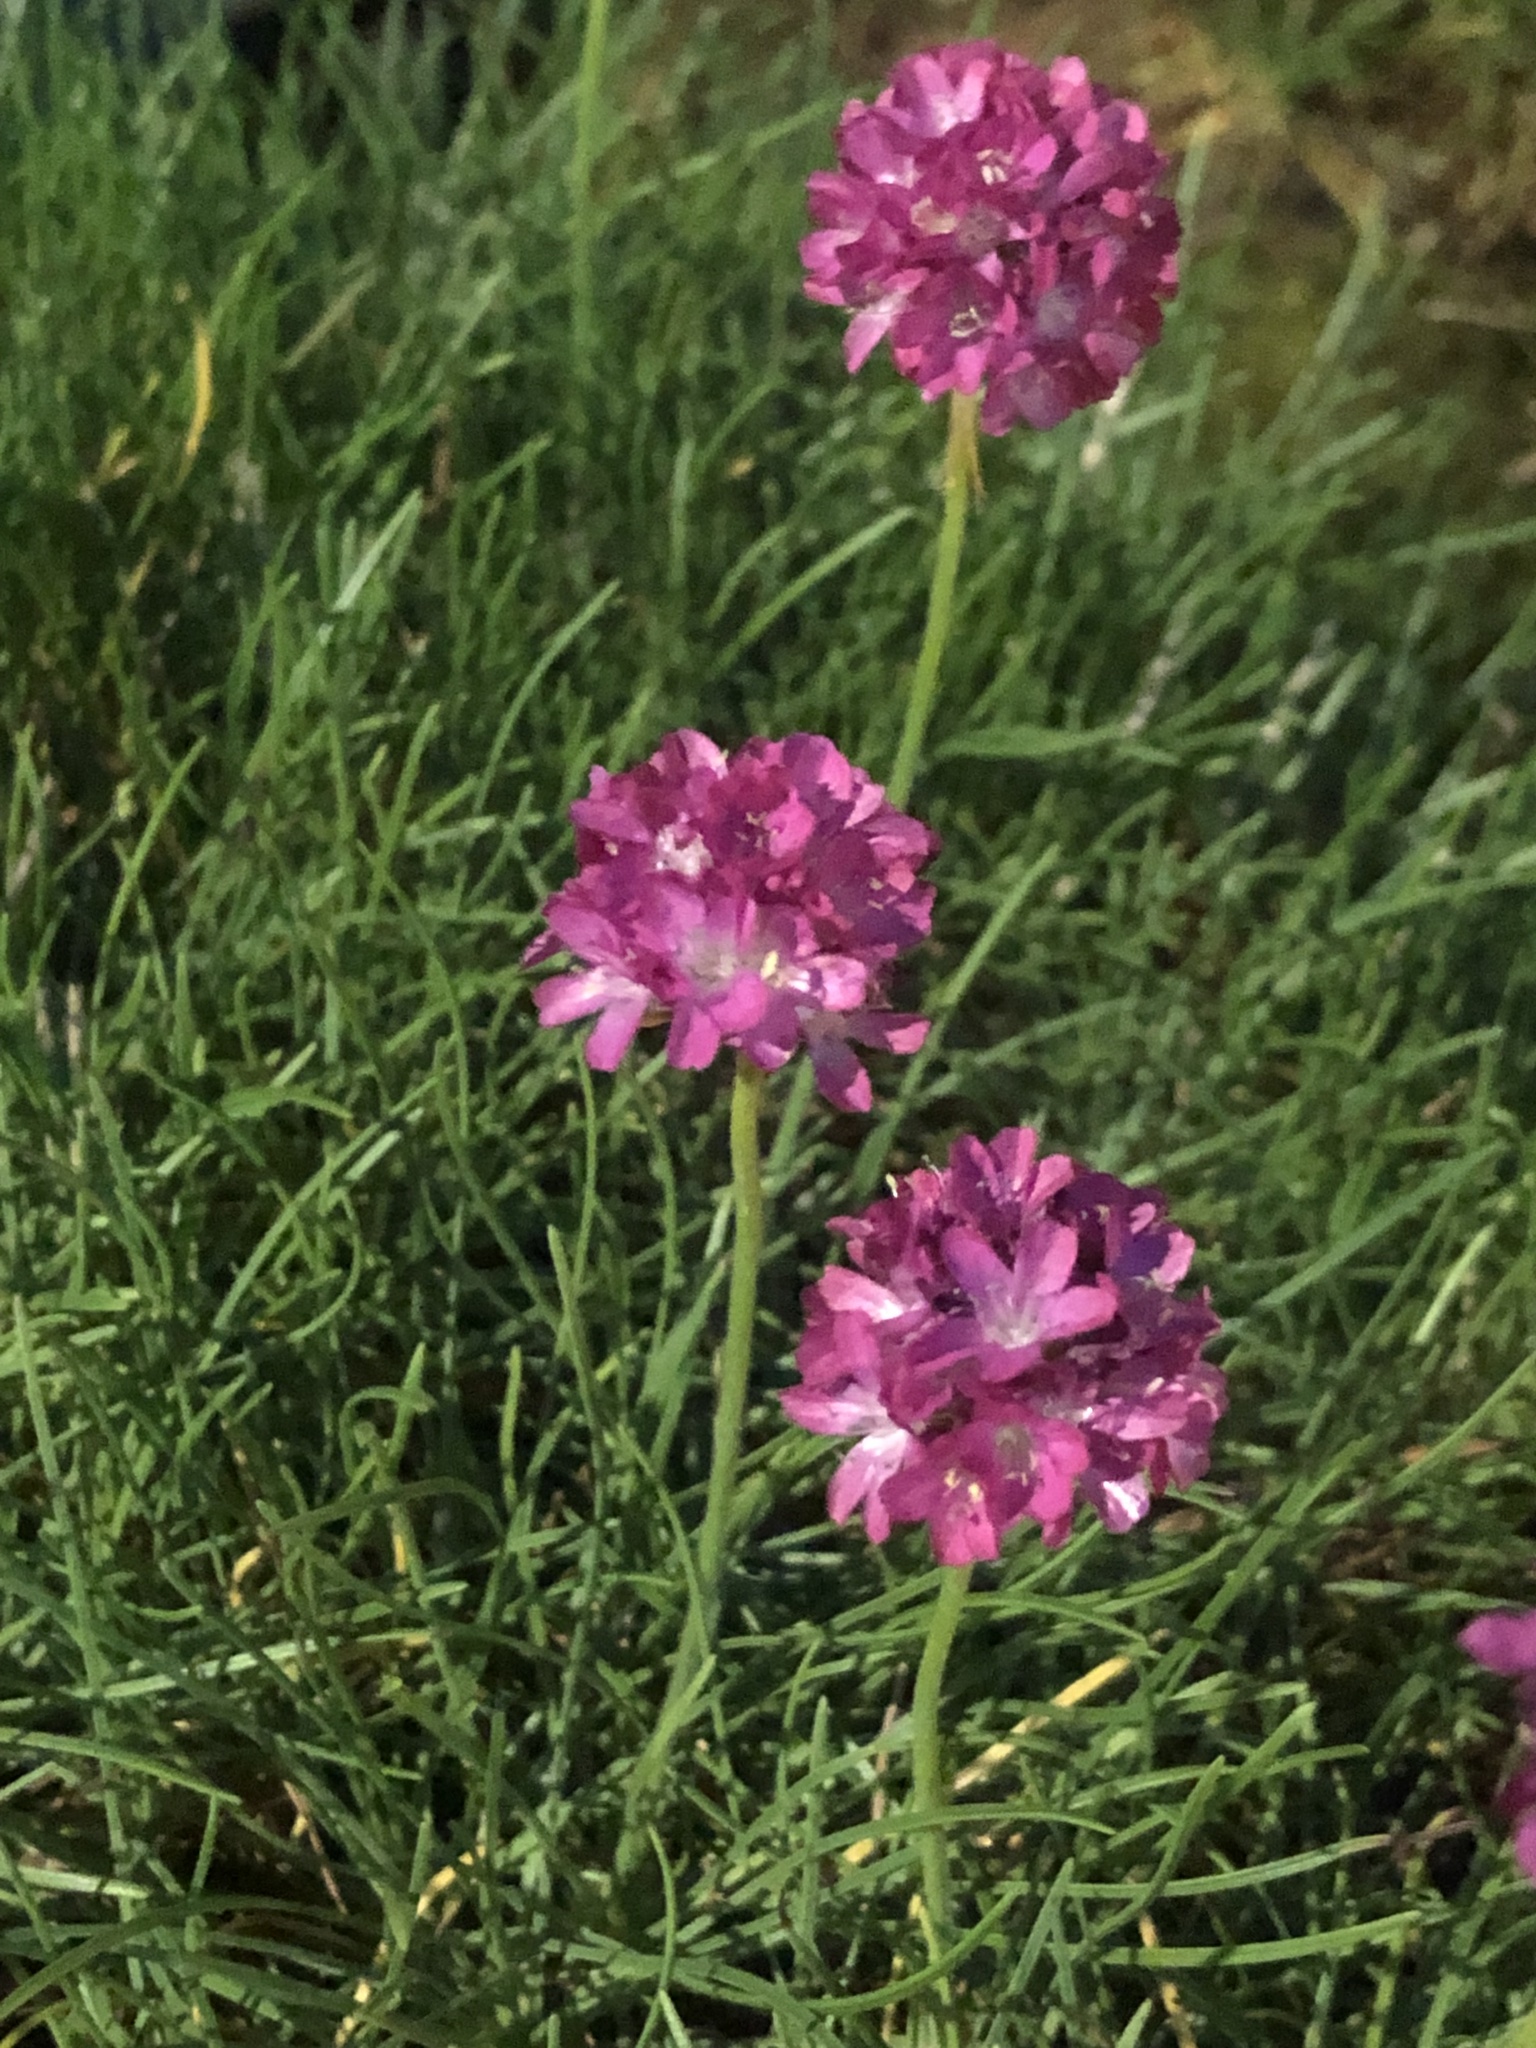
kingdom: Plantae
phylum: Tracheophyta
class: Magnoliopsida
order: Caryophyllales
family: Plumbaginaceae
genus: Armeria
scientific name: Armeria maritima
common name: Thrift
